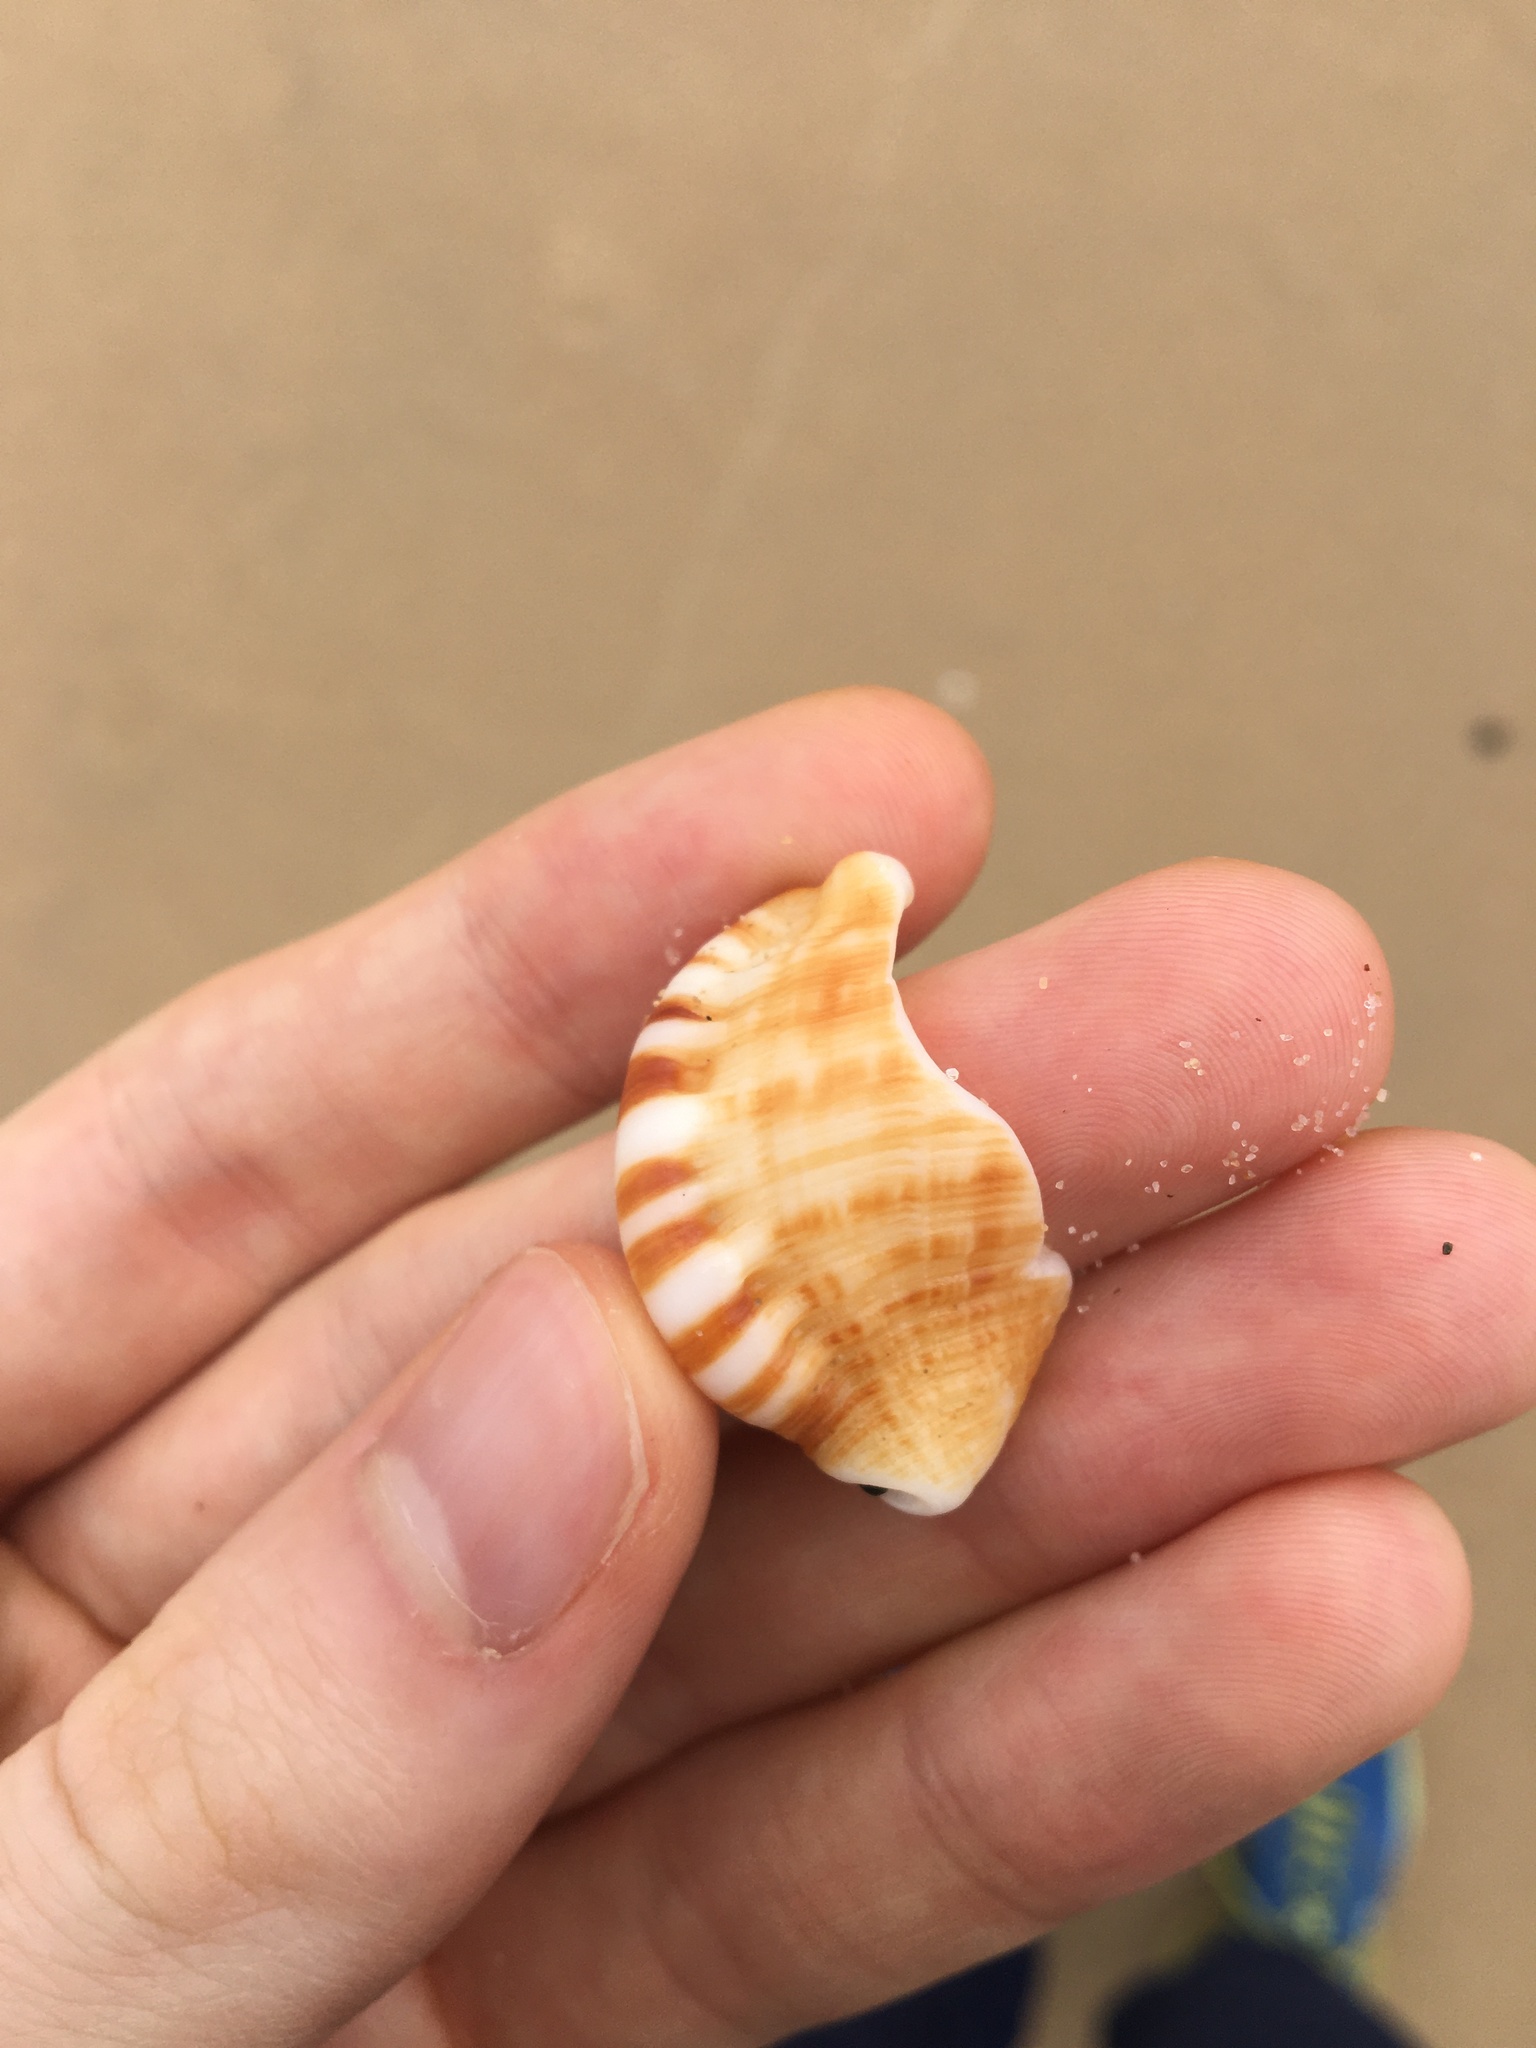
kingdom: Animalia
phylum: Mollusca
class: Gastropoda
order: Littorinimorpha
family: Ranellidae
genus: Ranella
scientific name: Ranella australasia
